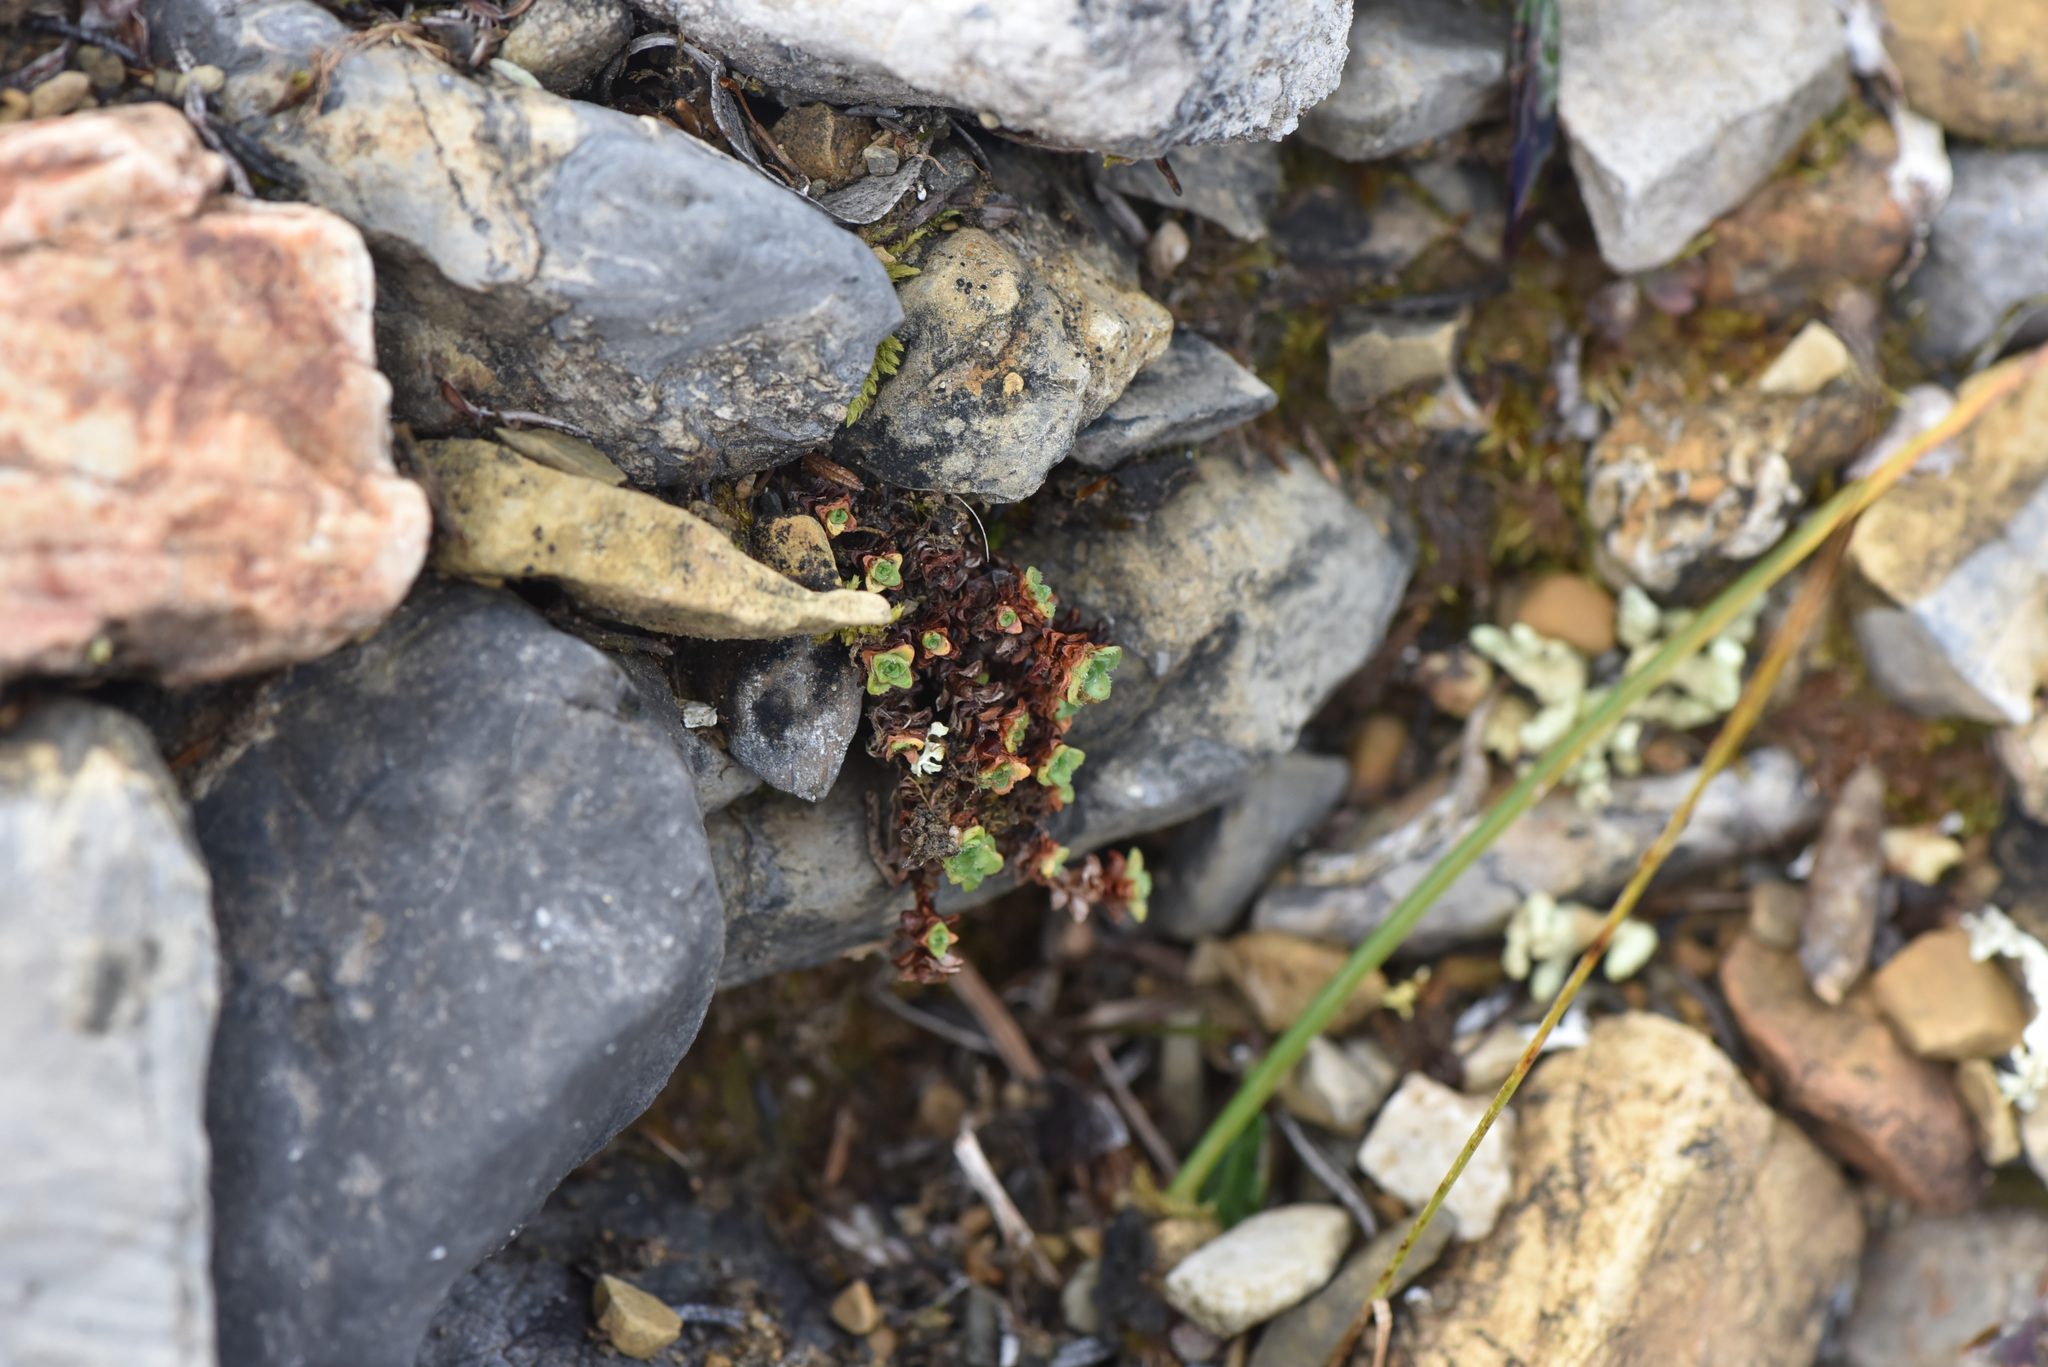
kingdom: Plantae
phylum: Tracheophyta
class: Magnoliopsida
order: Saxifragales
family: Saxifragaceae
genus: Saxifraga
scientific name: Saxifraga oppositifolia
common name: Purple saxifrage
